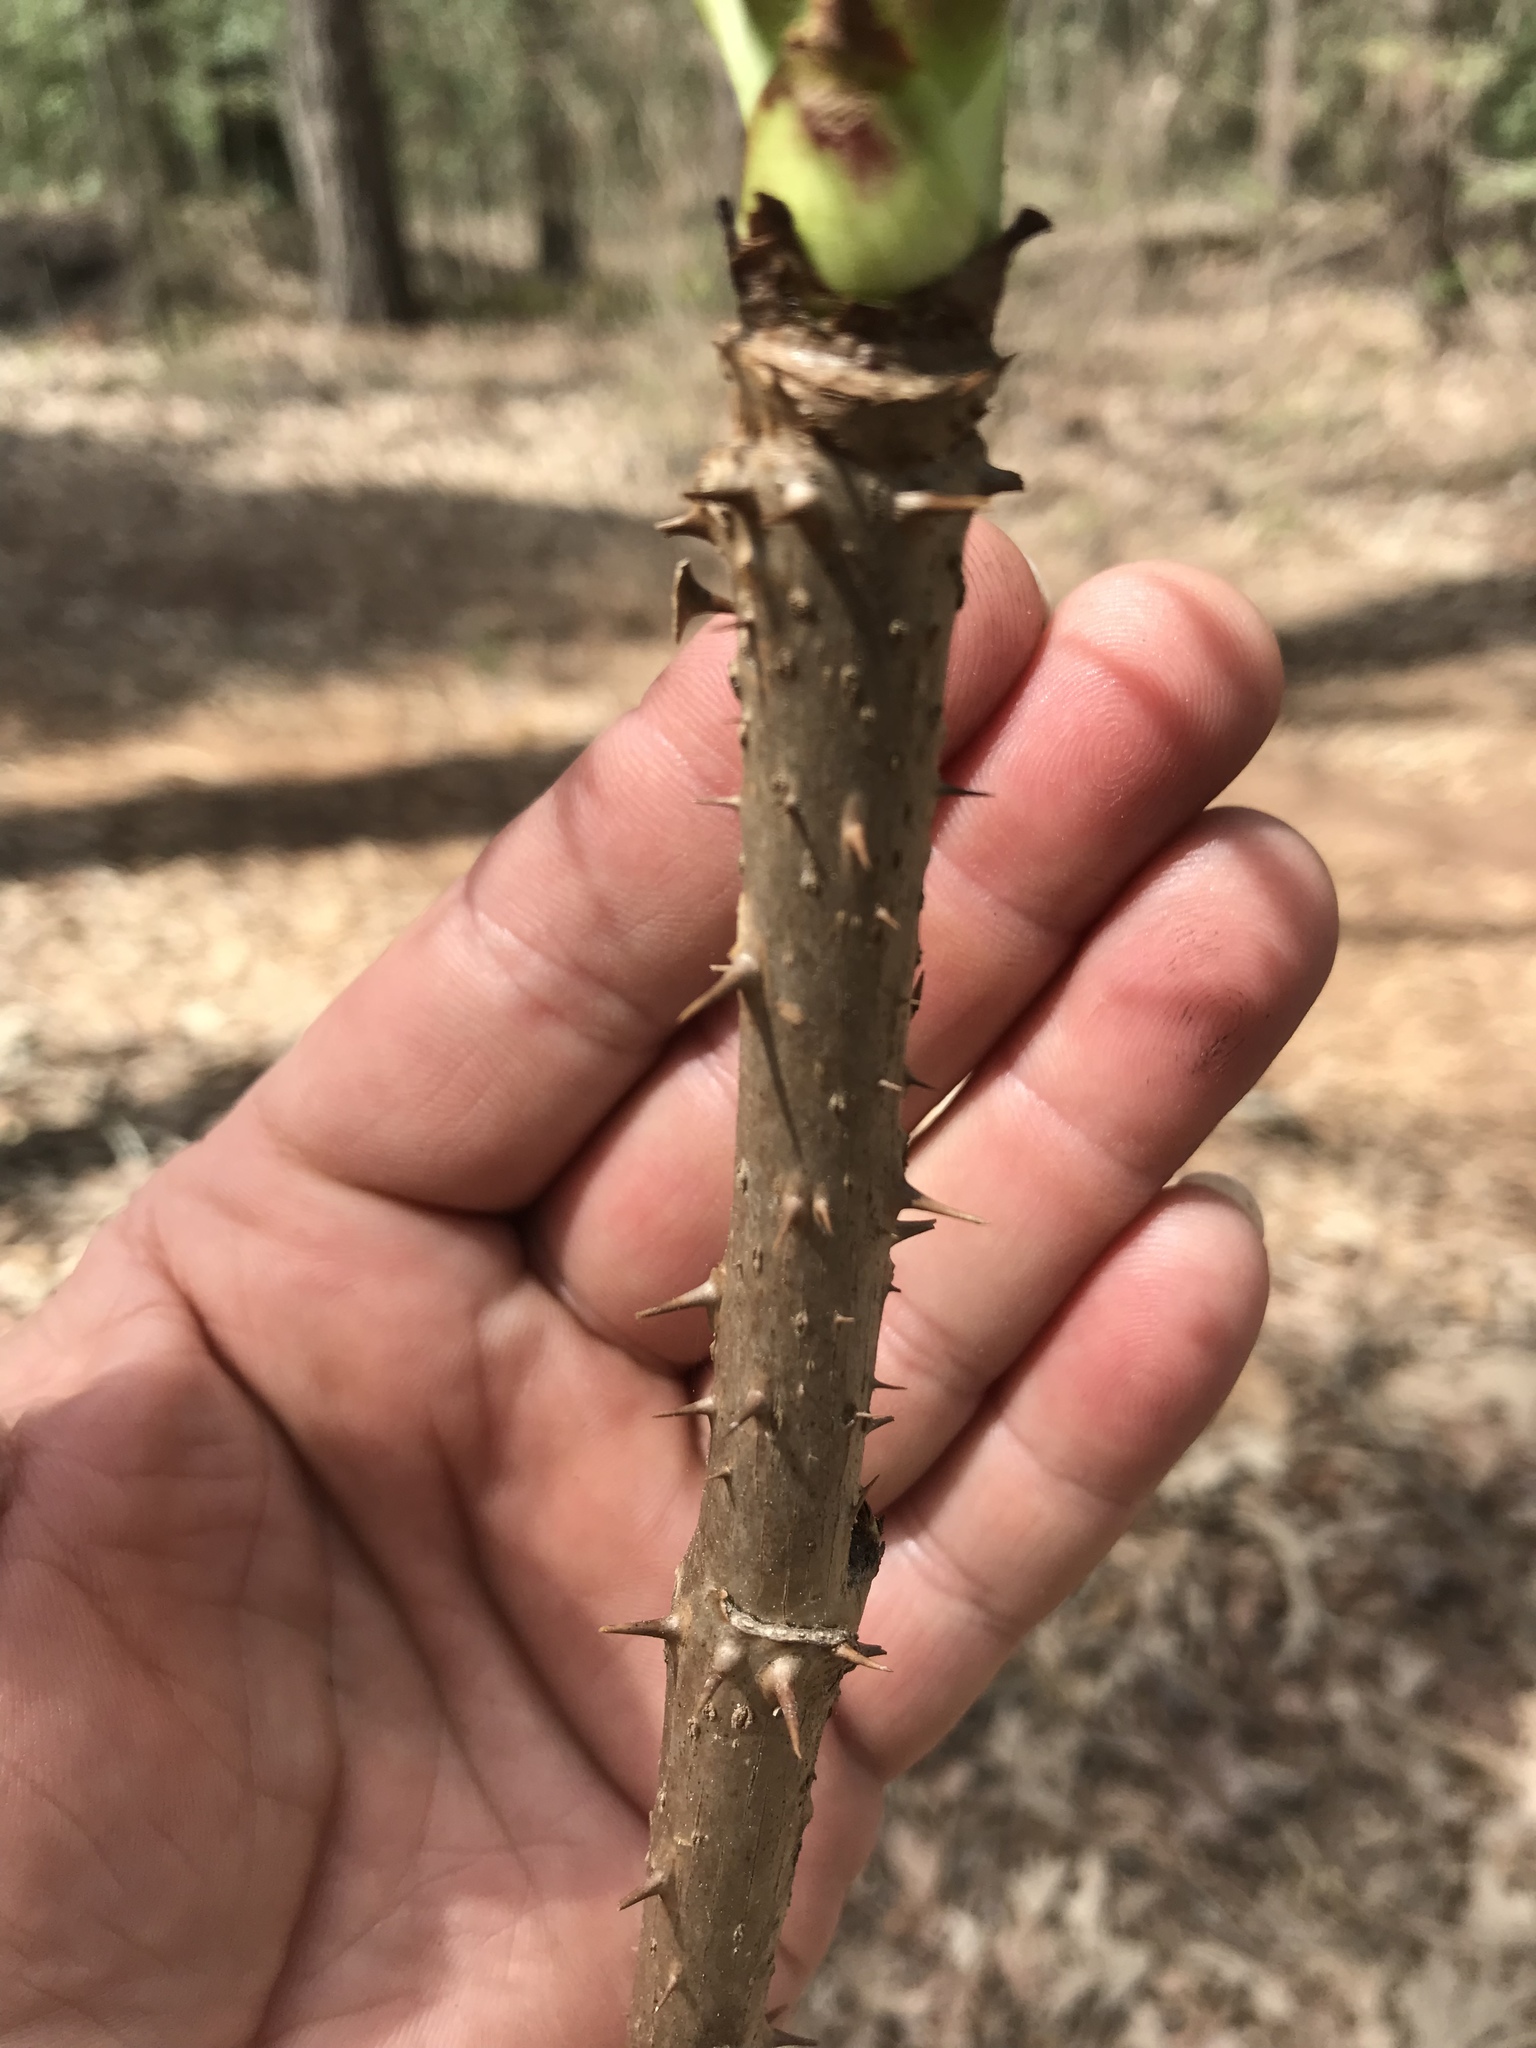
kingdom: Plantae
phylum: Tracheophyta
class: Magnoliopsida
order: Apiales
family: Araliaceae
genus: Aralia
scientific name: Aralia spinosa
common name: Hercules'-club
